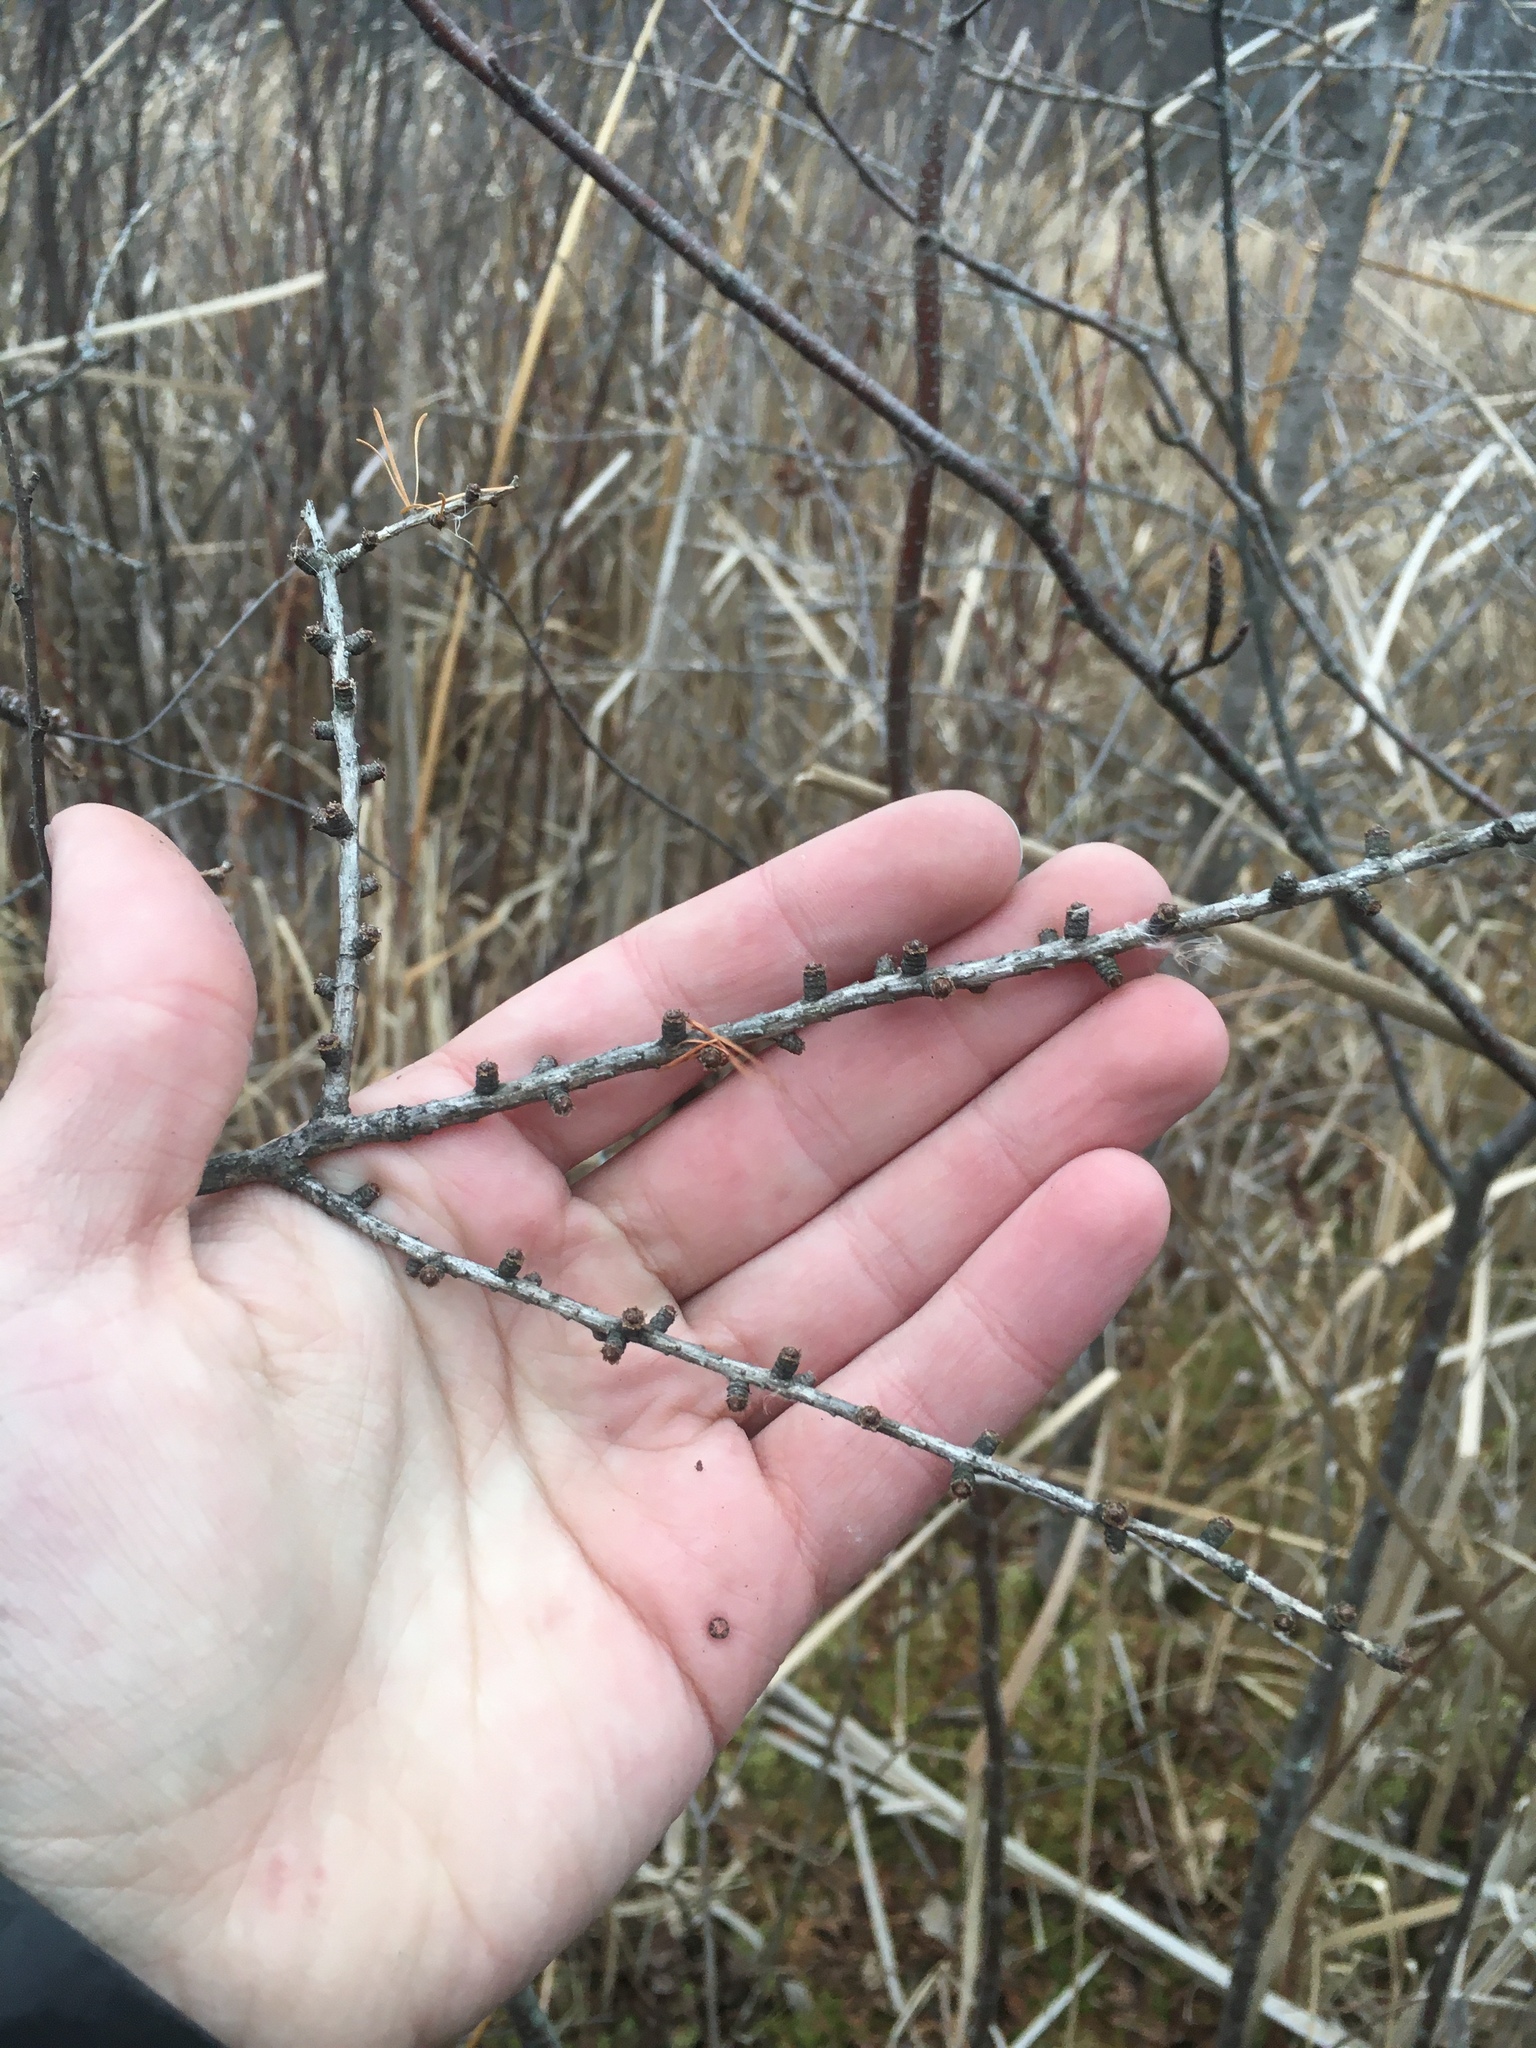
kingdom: Plantae
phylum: Tracheophyta
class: Pinopsida
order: Pinales
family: Pinaceae
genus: Larix
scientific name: Larix laricina
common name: American larch
